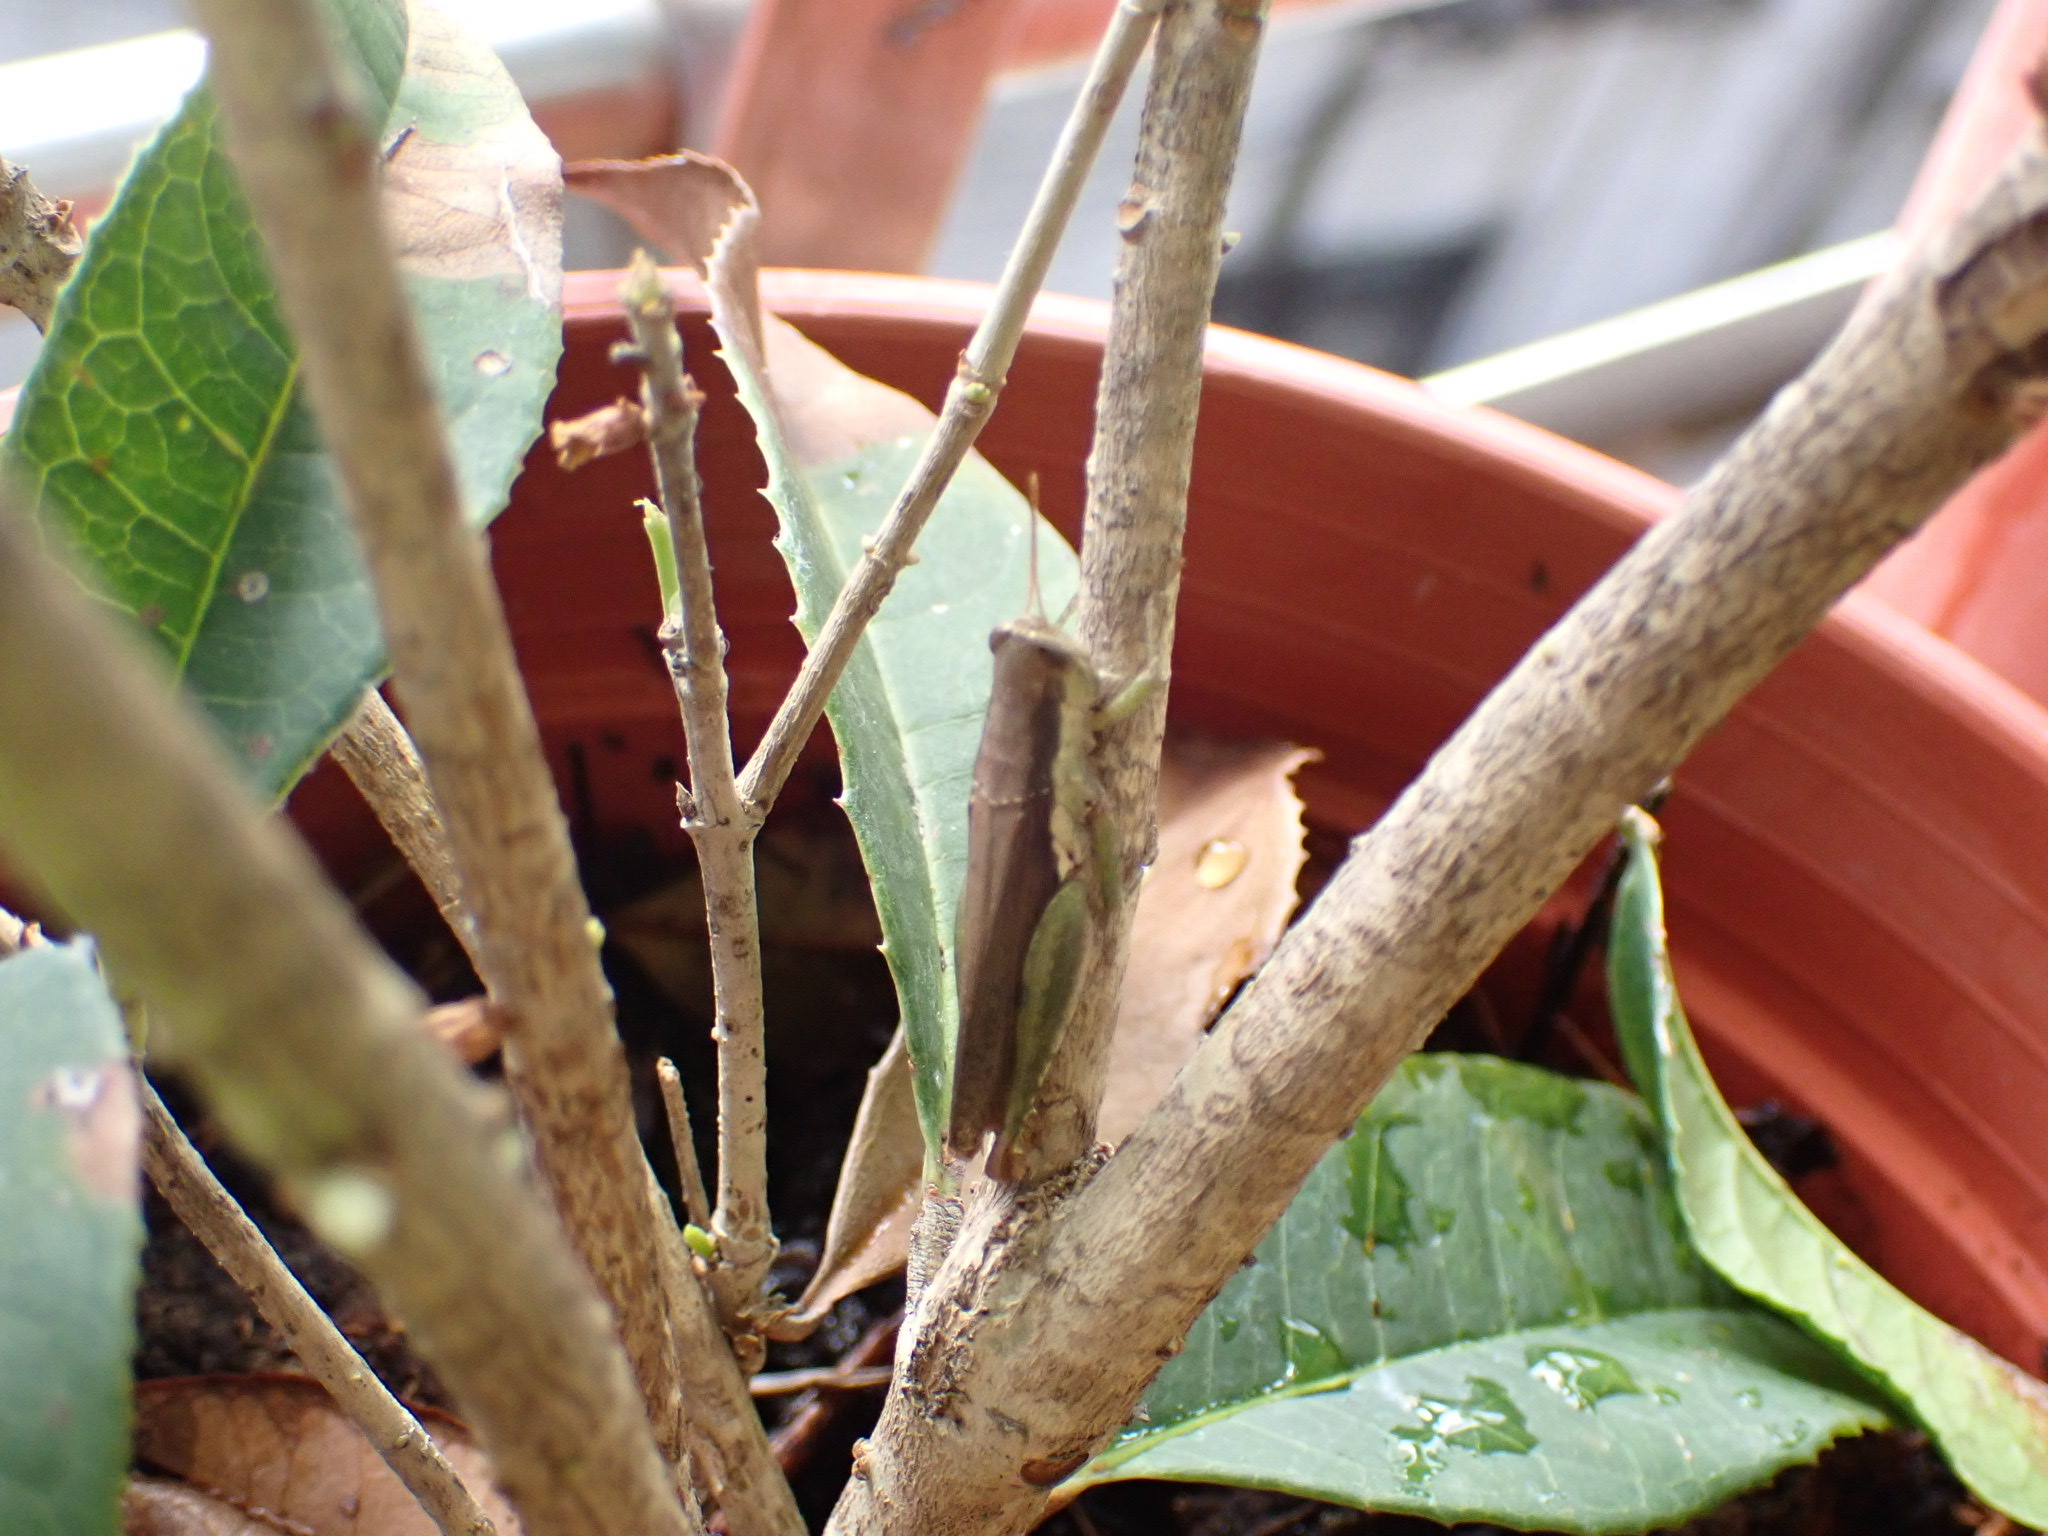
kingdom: Animalia
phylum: Arthropoda
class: Insecta
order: Orthoptera
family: Acrididae
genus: Pseudoxya
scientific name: Pseudoxya diminuta
